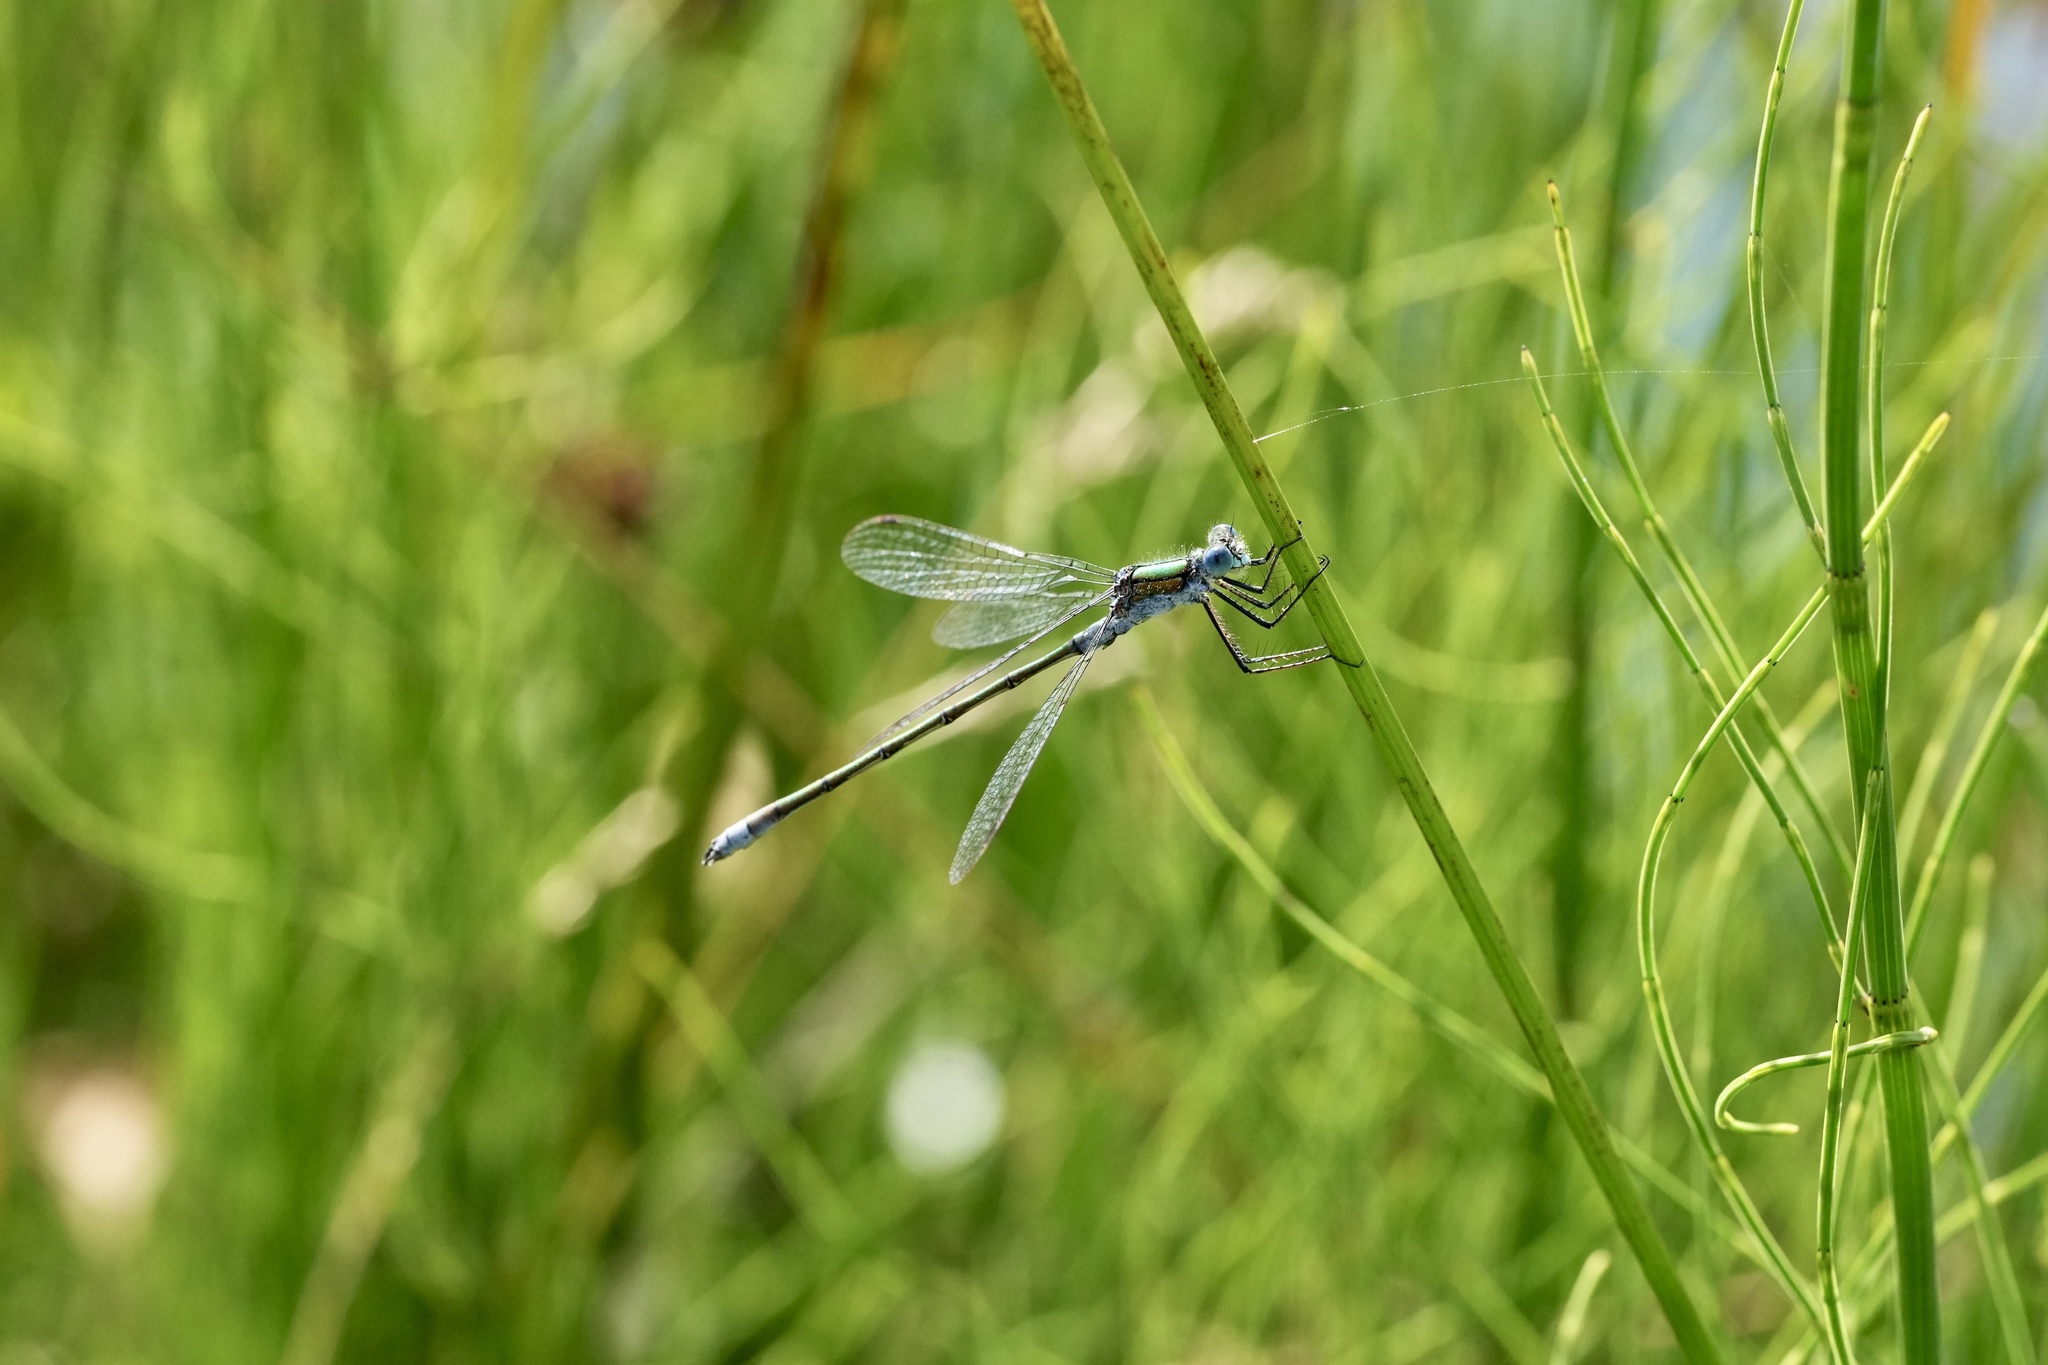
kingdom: Animalia
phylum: Arthropoda
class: Insecta
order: Odonata
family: Lestidae
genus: Lestes
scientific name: Lestes sponsa
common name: Common spreadwing
